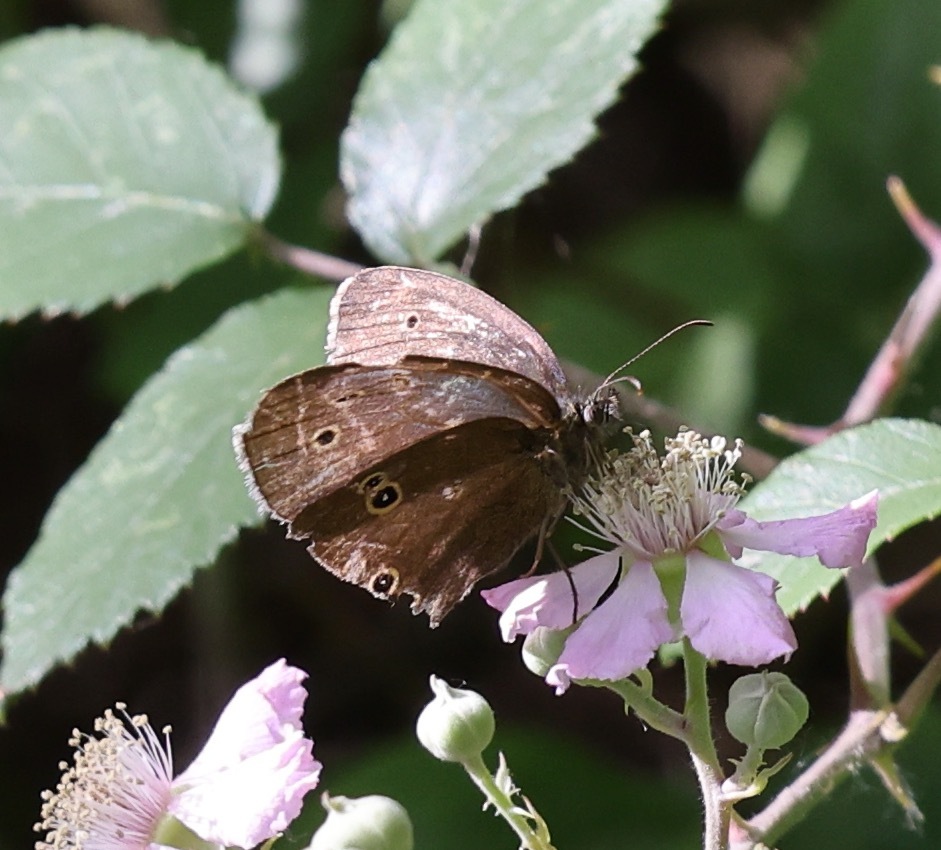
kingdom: Animalia
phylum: Arthropoda
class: Insecta
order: Lepidoptera
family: Nymphalidae
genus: Aphantopus
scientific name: Aphantopus hyperantus
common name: Ringlet
